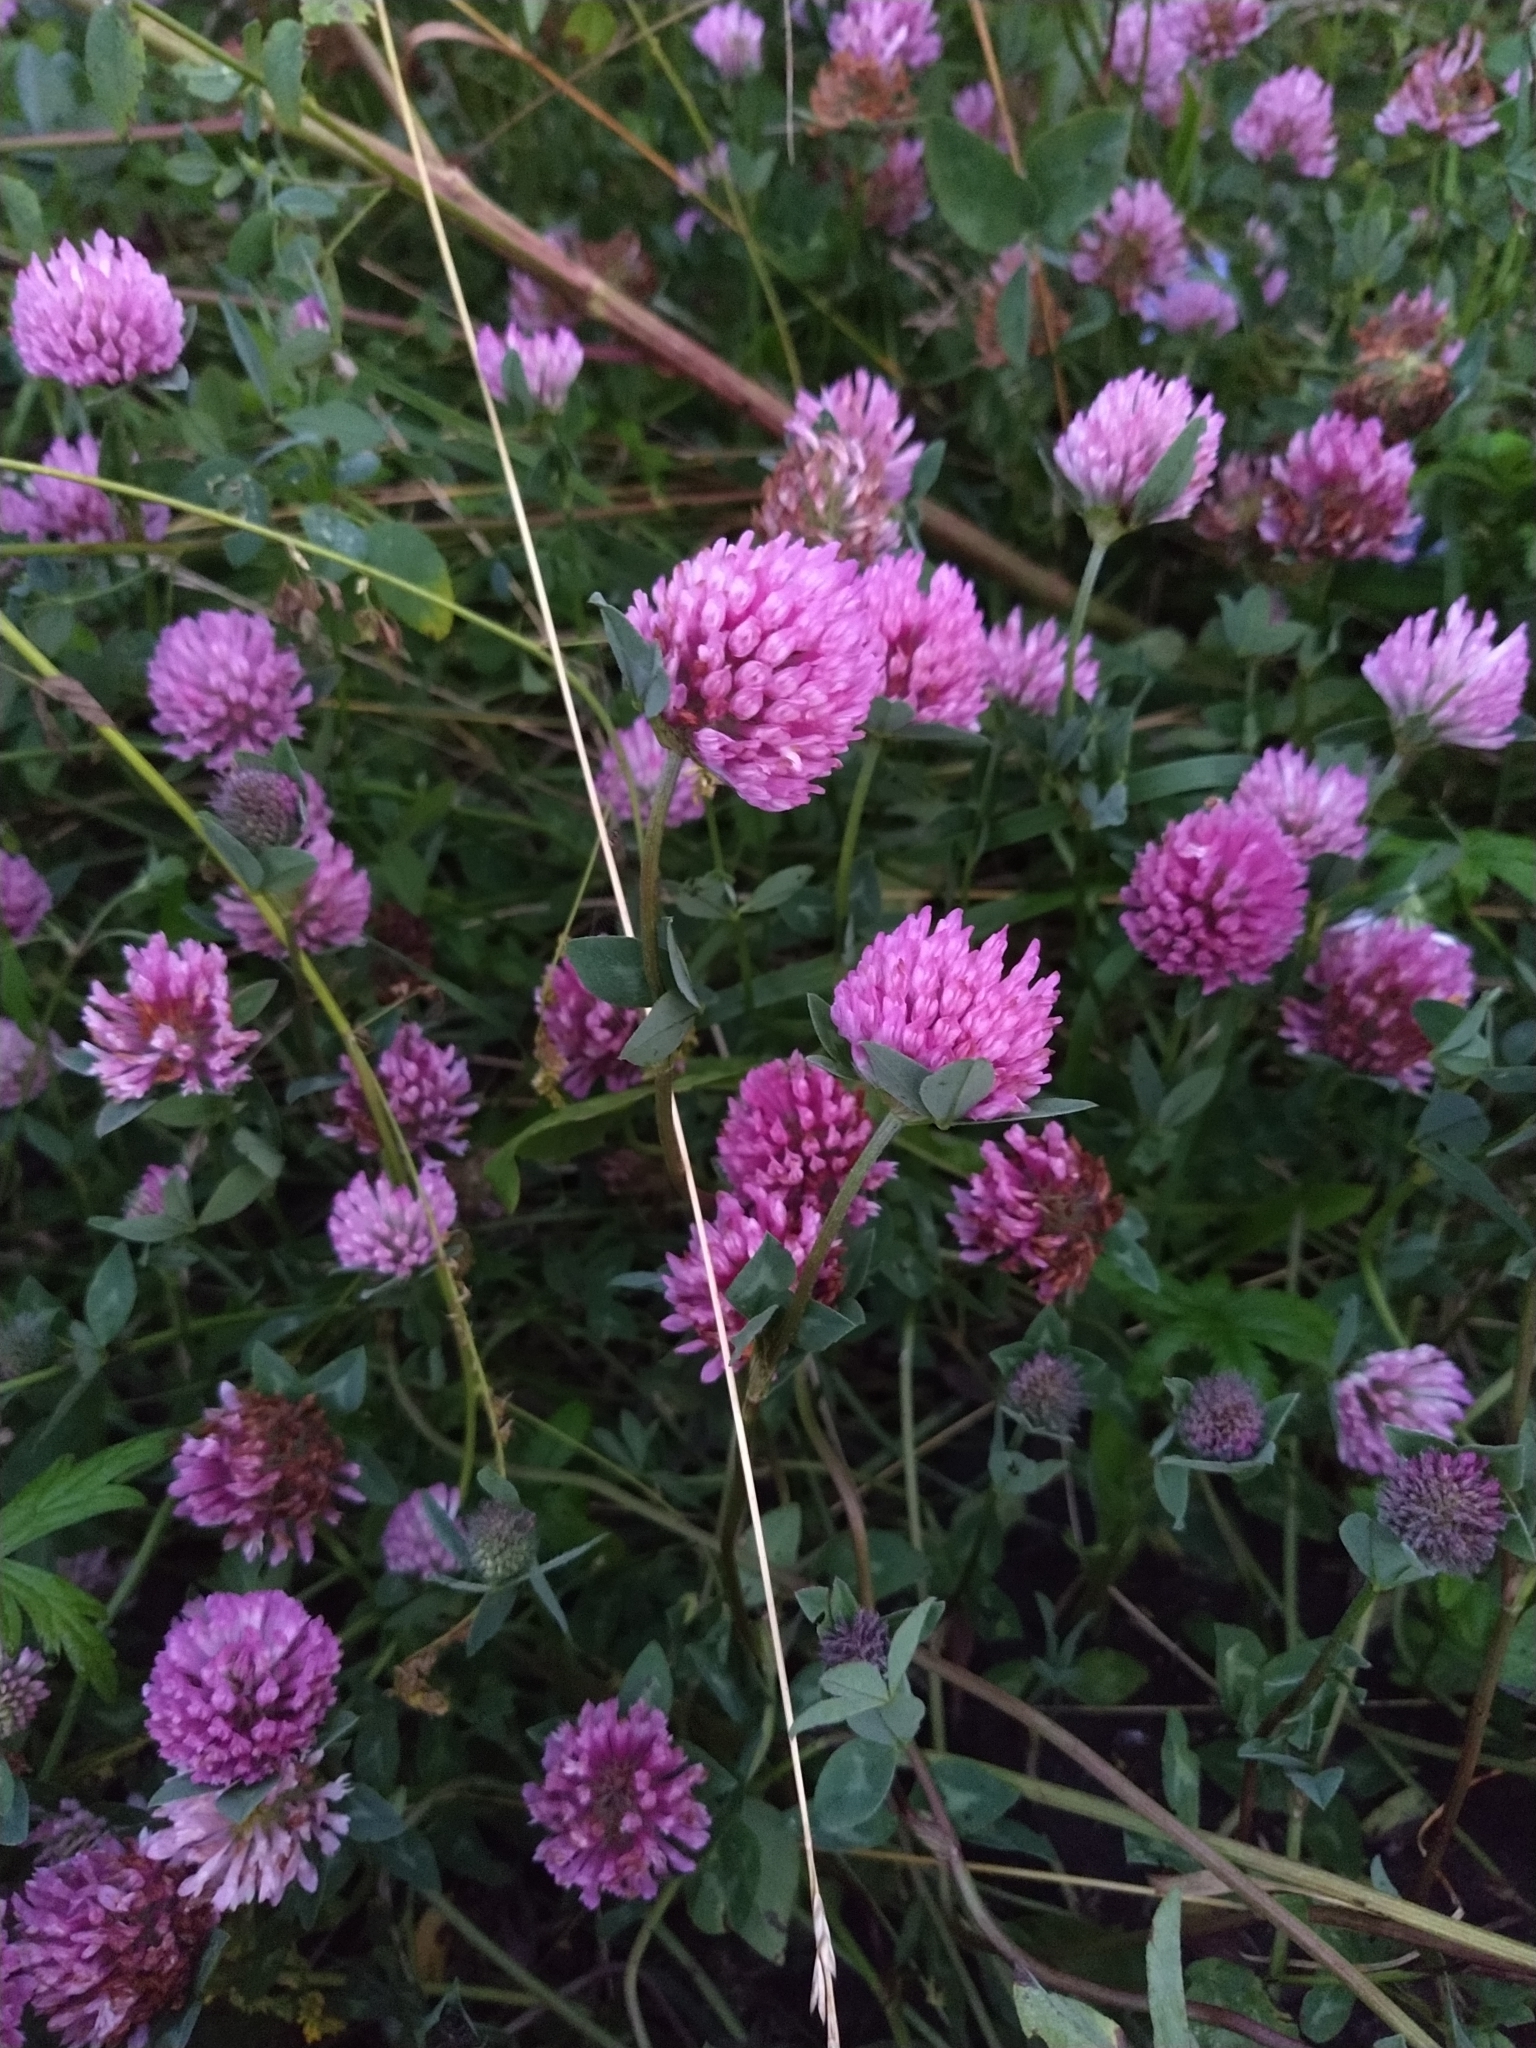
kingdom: Plantae
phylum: Tracheophyta
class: Magnoliopsida
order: Fabales
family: Fabaceae
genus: Trifolium
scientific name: Trifolium pratense
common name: Red clover
